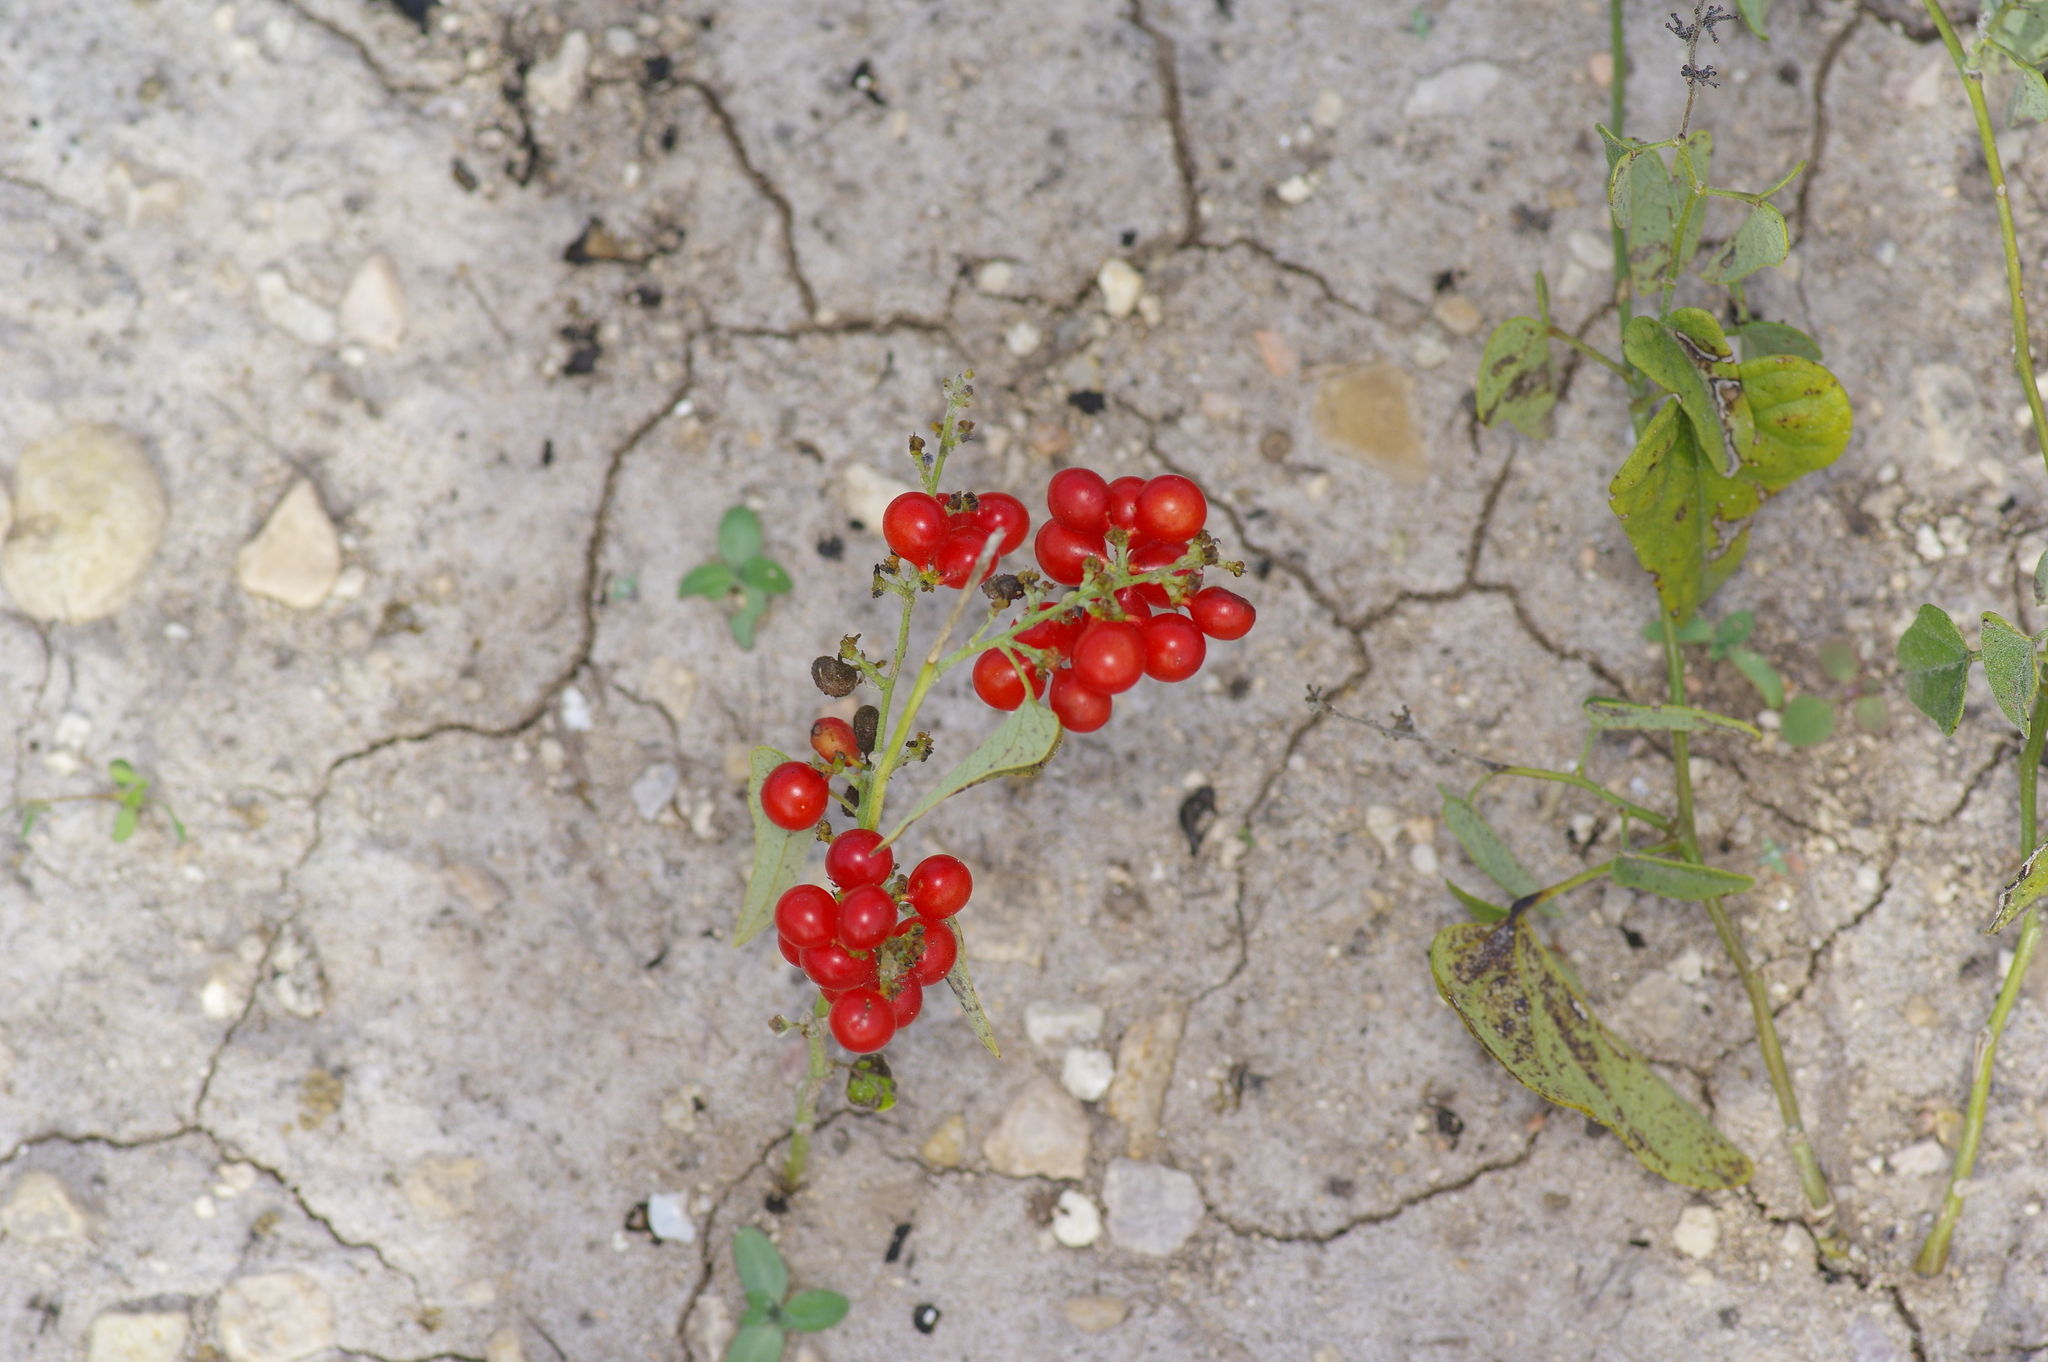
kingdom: Plantae
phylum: Tracheophyta
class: Magnoliopsida
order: Ranunculales
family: Menispermaceae
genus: Cocculus
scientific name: Cocculus carolinus
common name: Carolina moonseed
